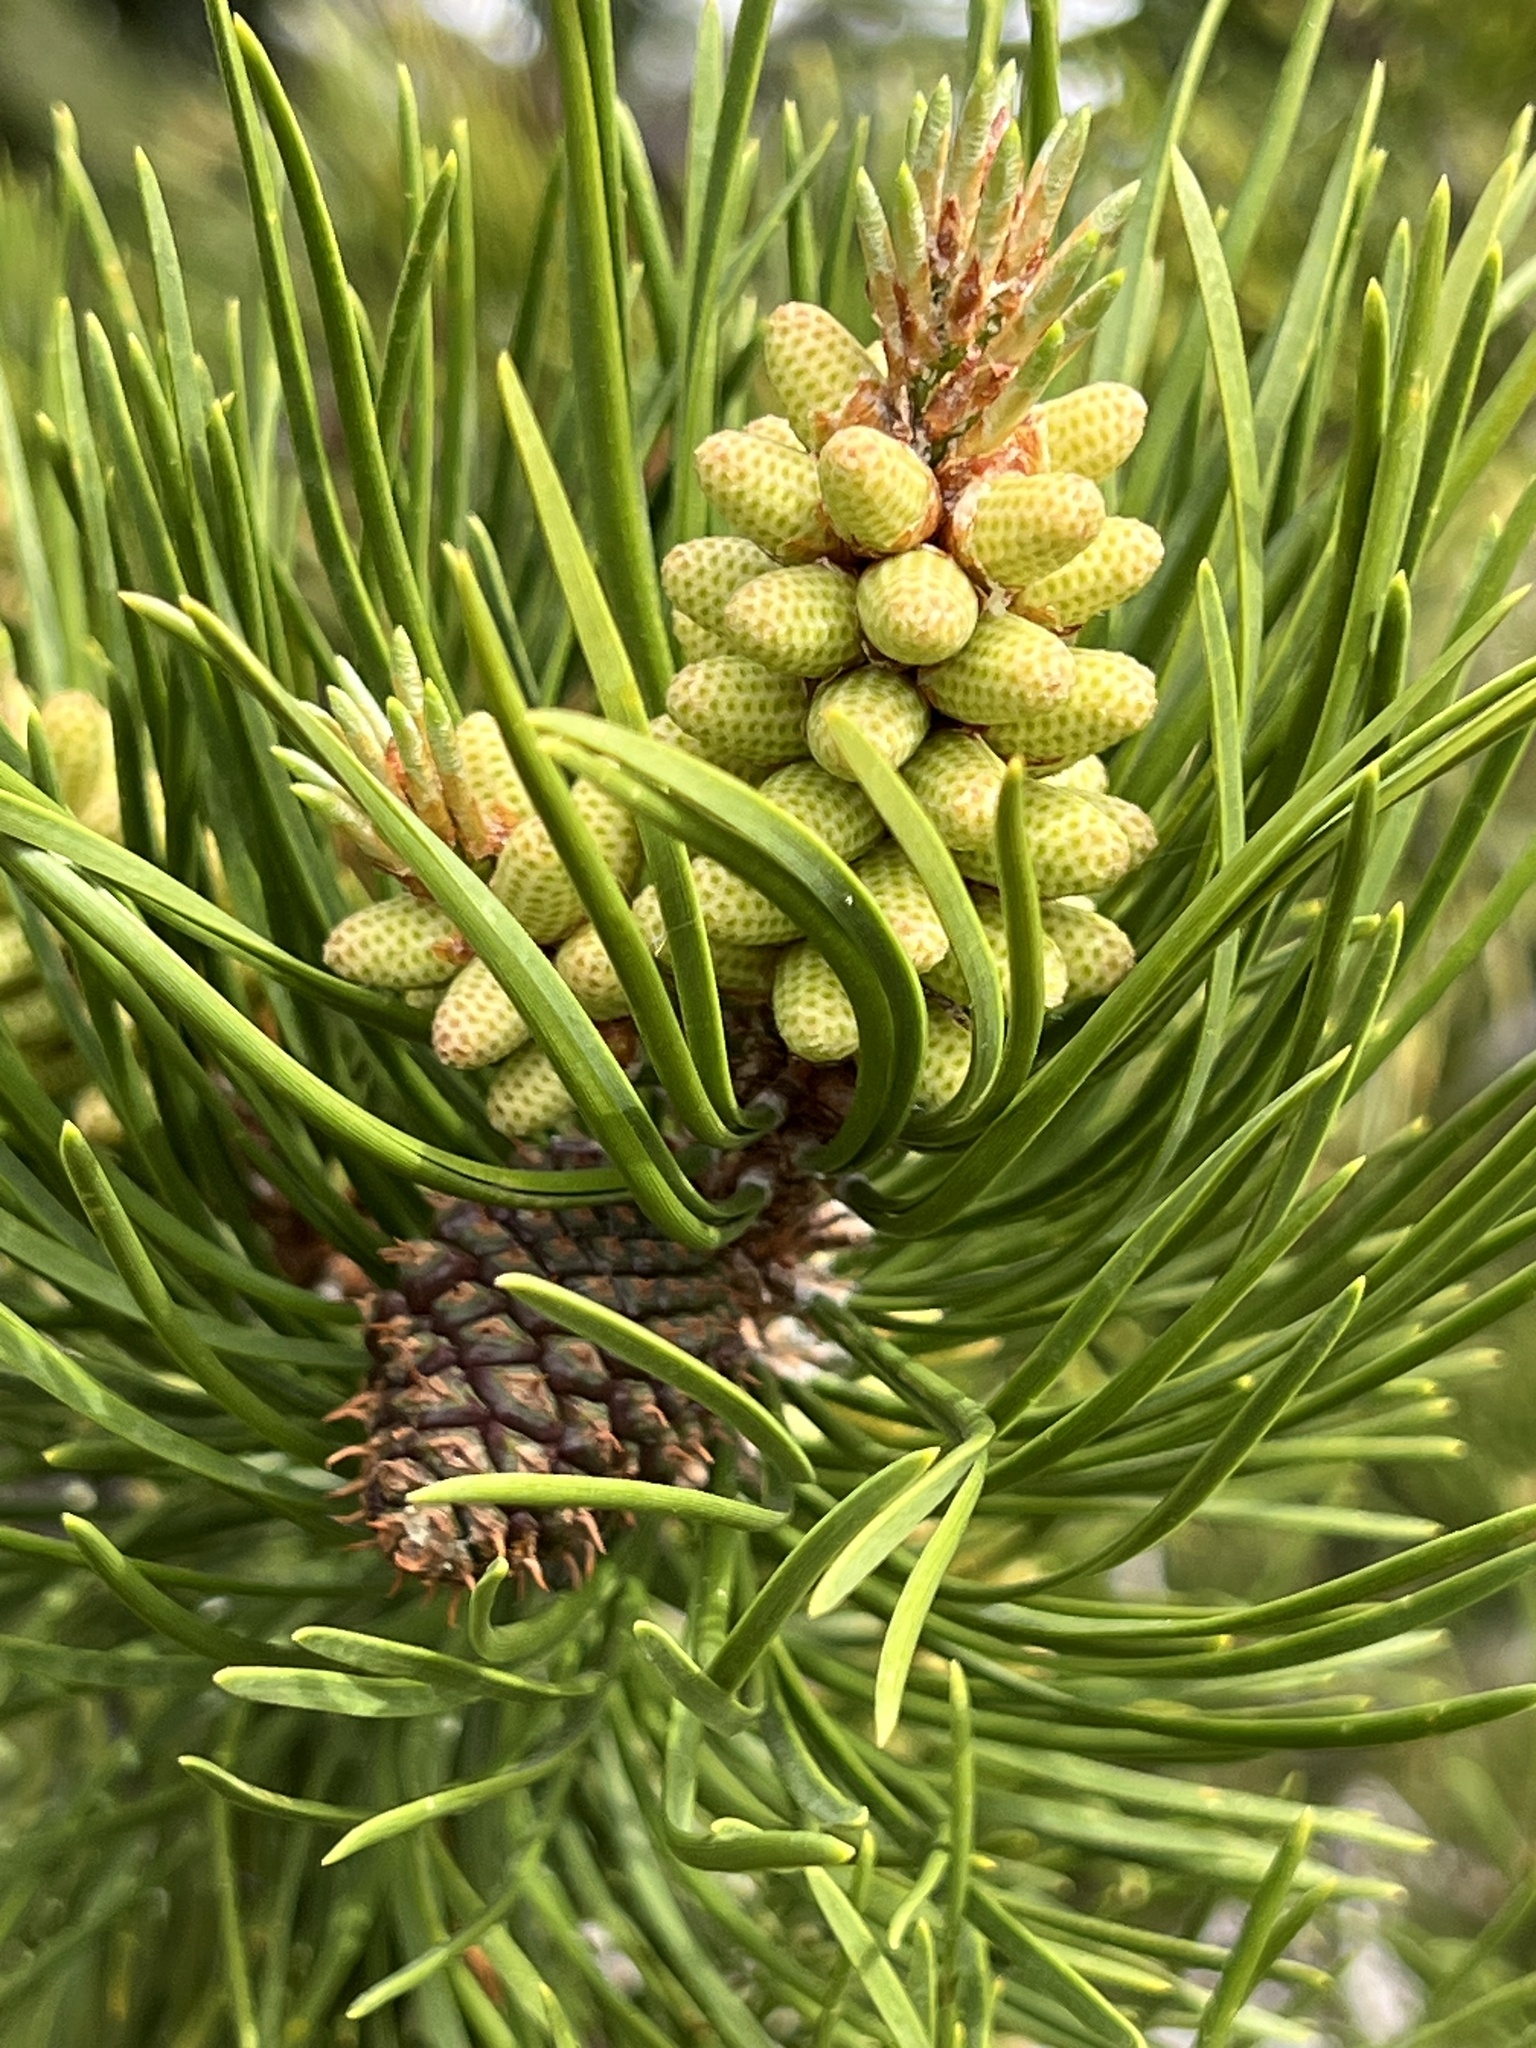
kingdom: Plantae
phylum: Tracheophyta
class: Pinopsida
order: Pinales
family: Pinaceae
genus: Pinus
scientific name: Pinus contorta
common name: Lodgepole pine
